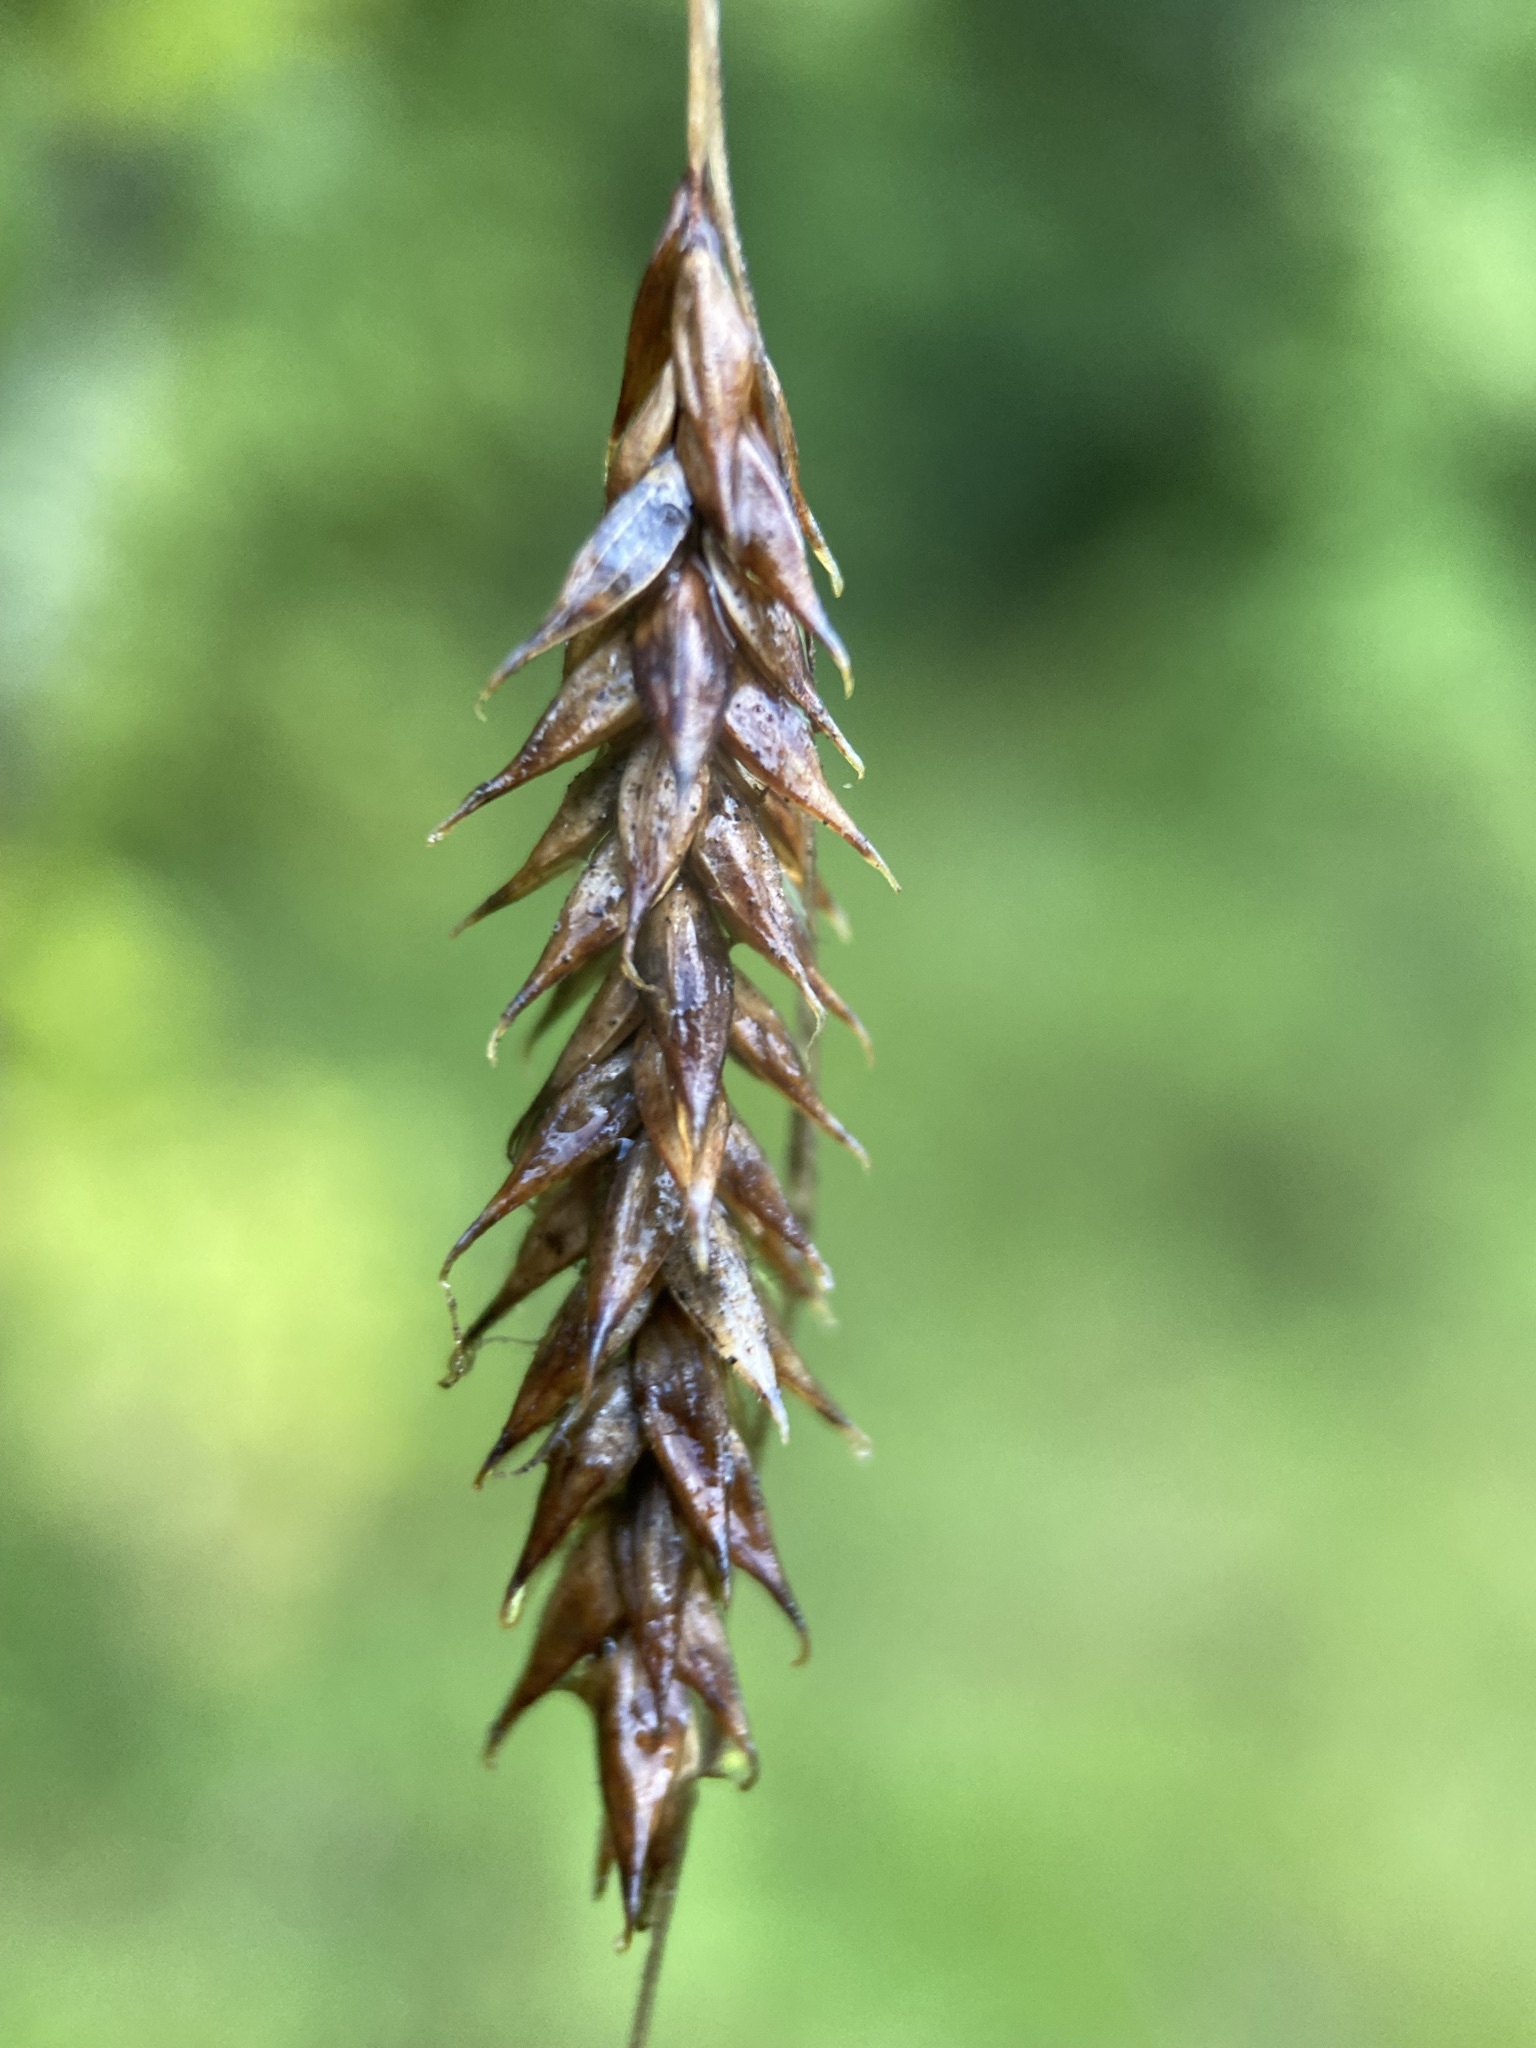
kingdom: Plantae
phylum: Tracheophyta
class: Liliopsida
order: Poales
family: Cyperaceae
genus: Carex
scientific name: Carex cherokeensis
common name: Cherokee sedge
